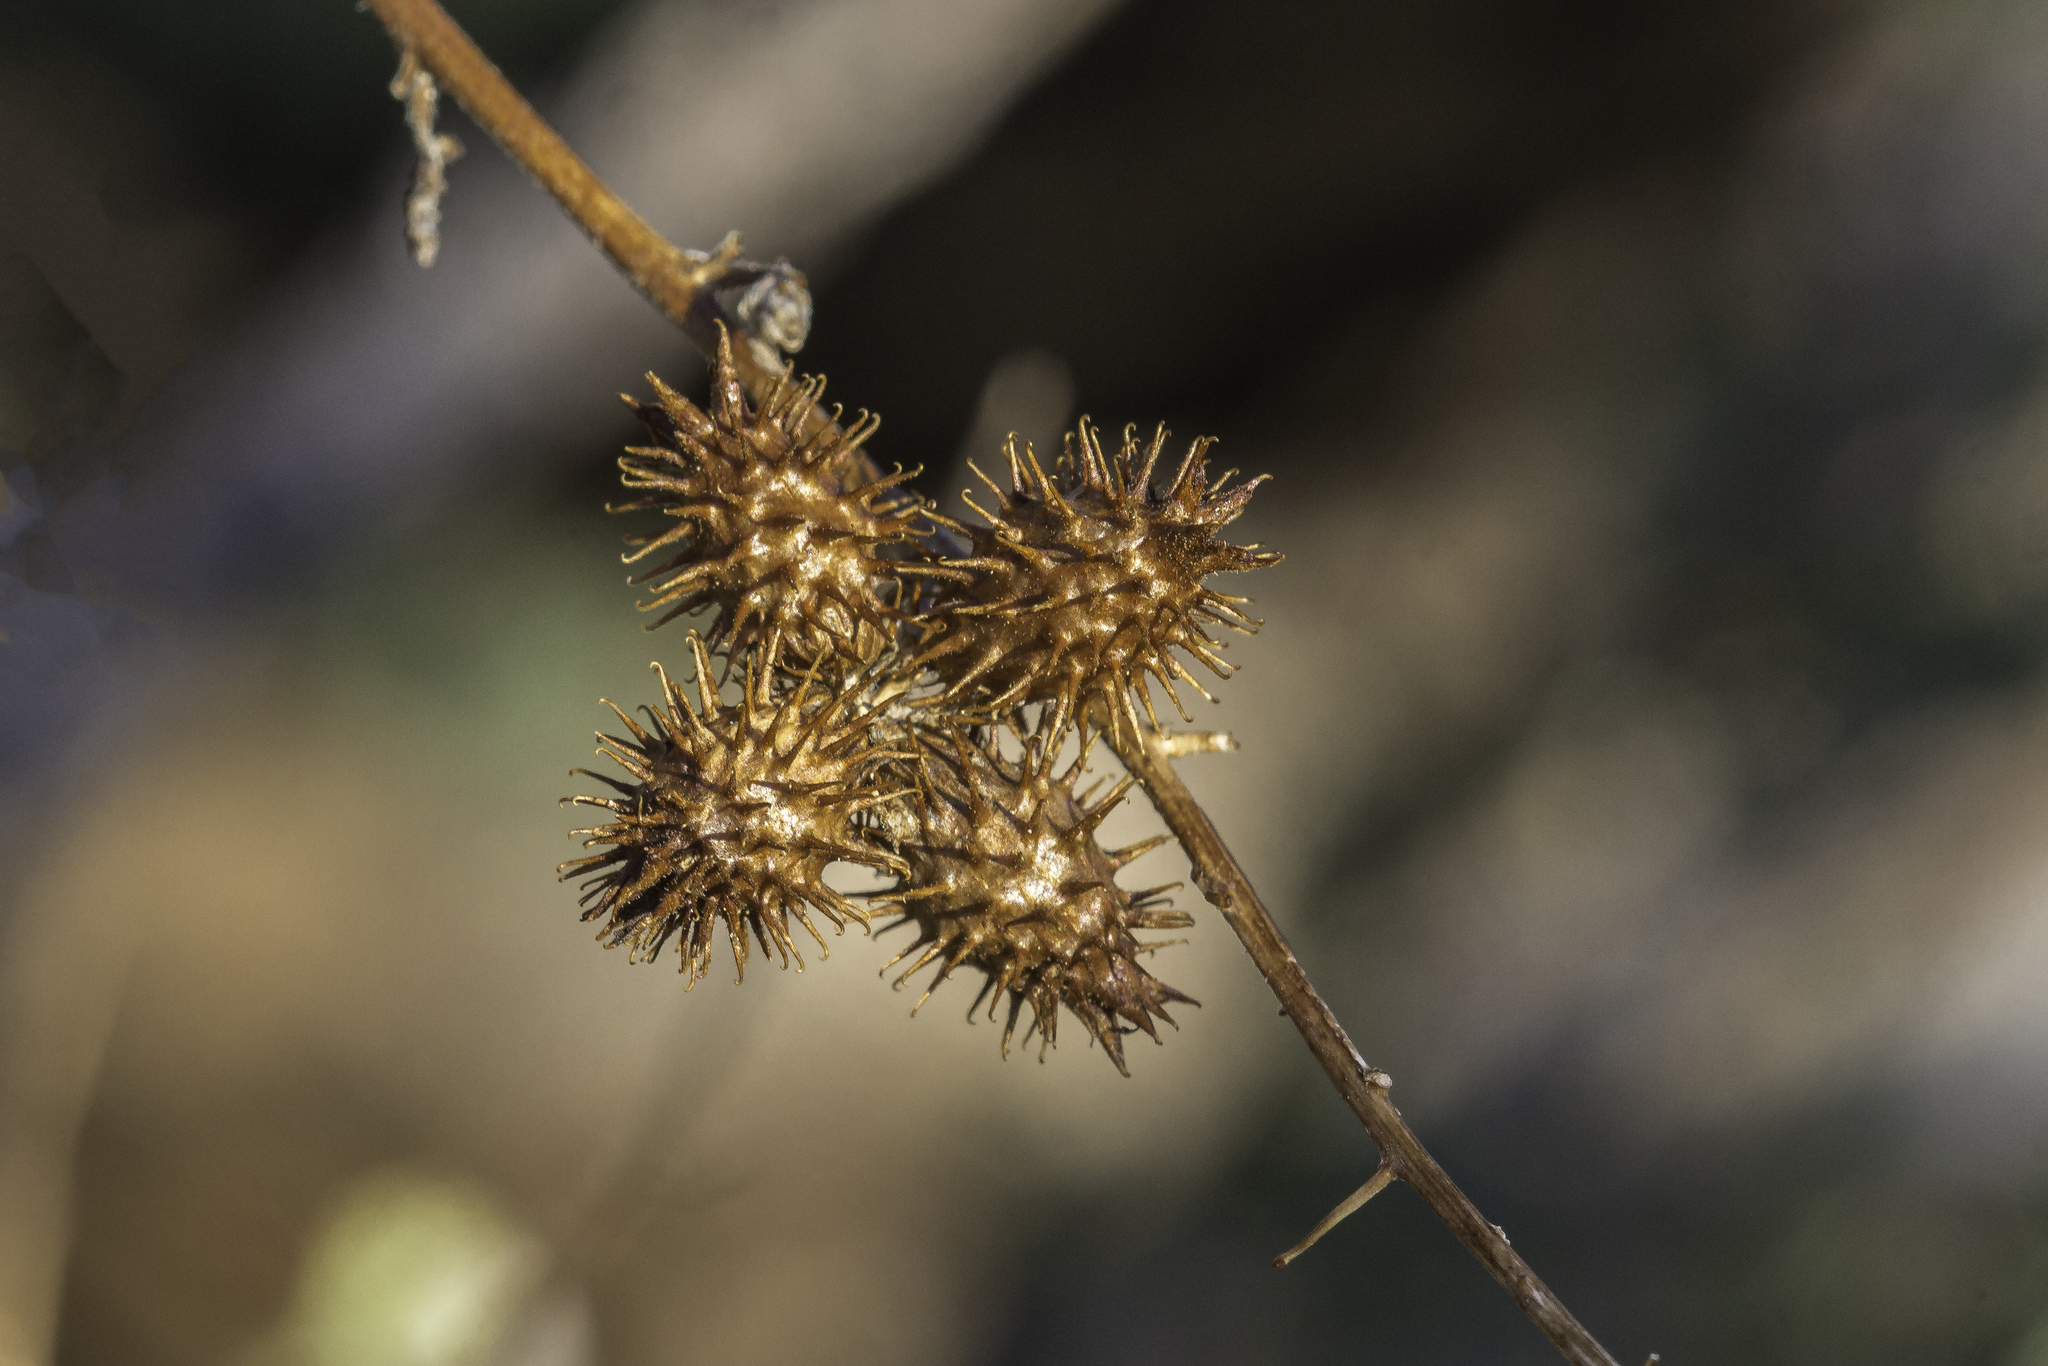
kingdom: Plantae
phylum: Tracheophyta
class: Magnoliopsida
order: Asterales
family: Asteraceae
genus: Ambrosia
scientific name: Ambrosia ambrosioides
